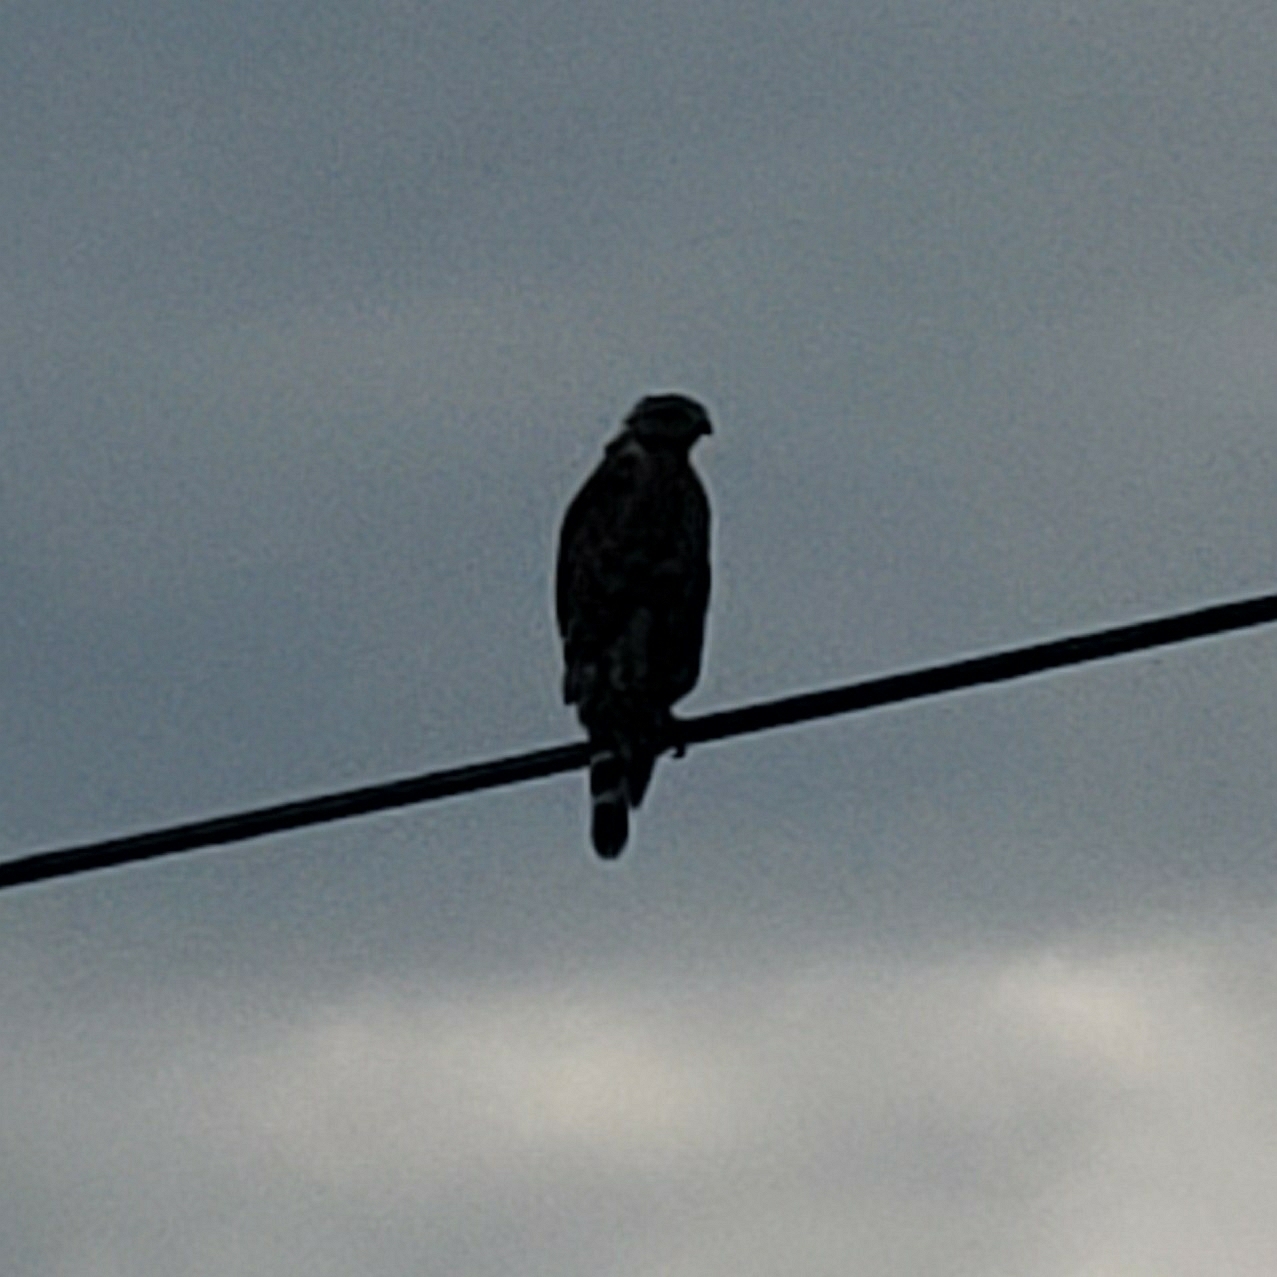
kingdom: Animalia
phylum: Chordata
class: Aves
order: Accipitriformes
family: Accipitridae
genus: Buteo
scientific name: Buteo lineatus
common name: Red-shouldered hawk
